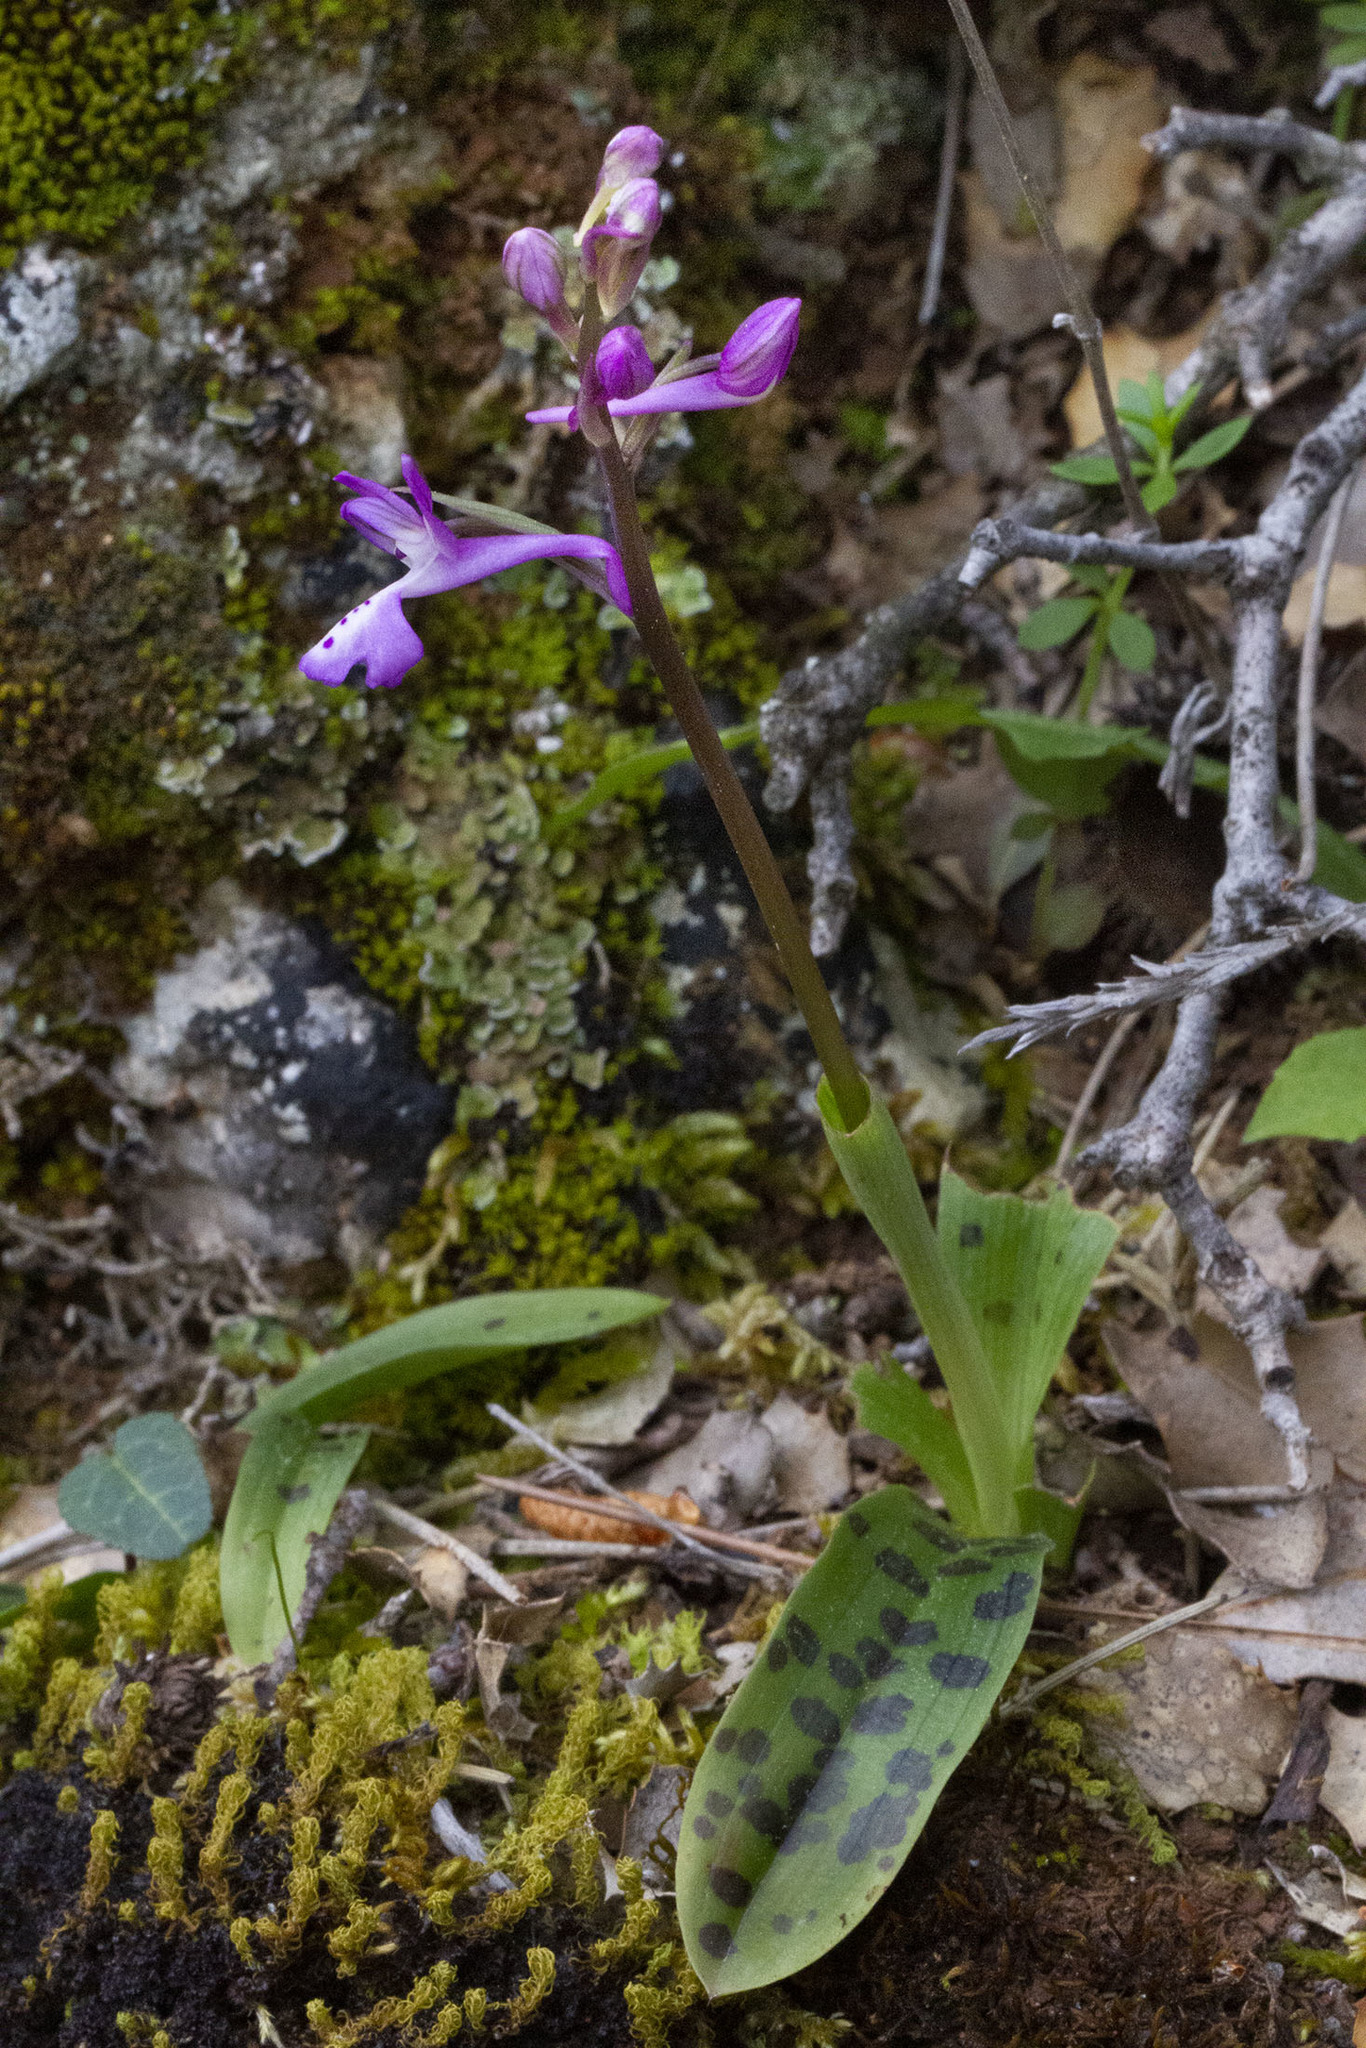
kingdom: Plantae
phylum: Tracheophyta
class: Liliopsida
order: Asparagales
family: Orchidaceae
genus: Orchis
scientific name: Orchis anatolica
